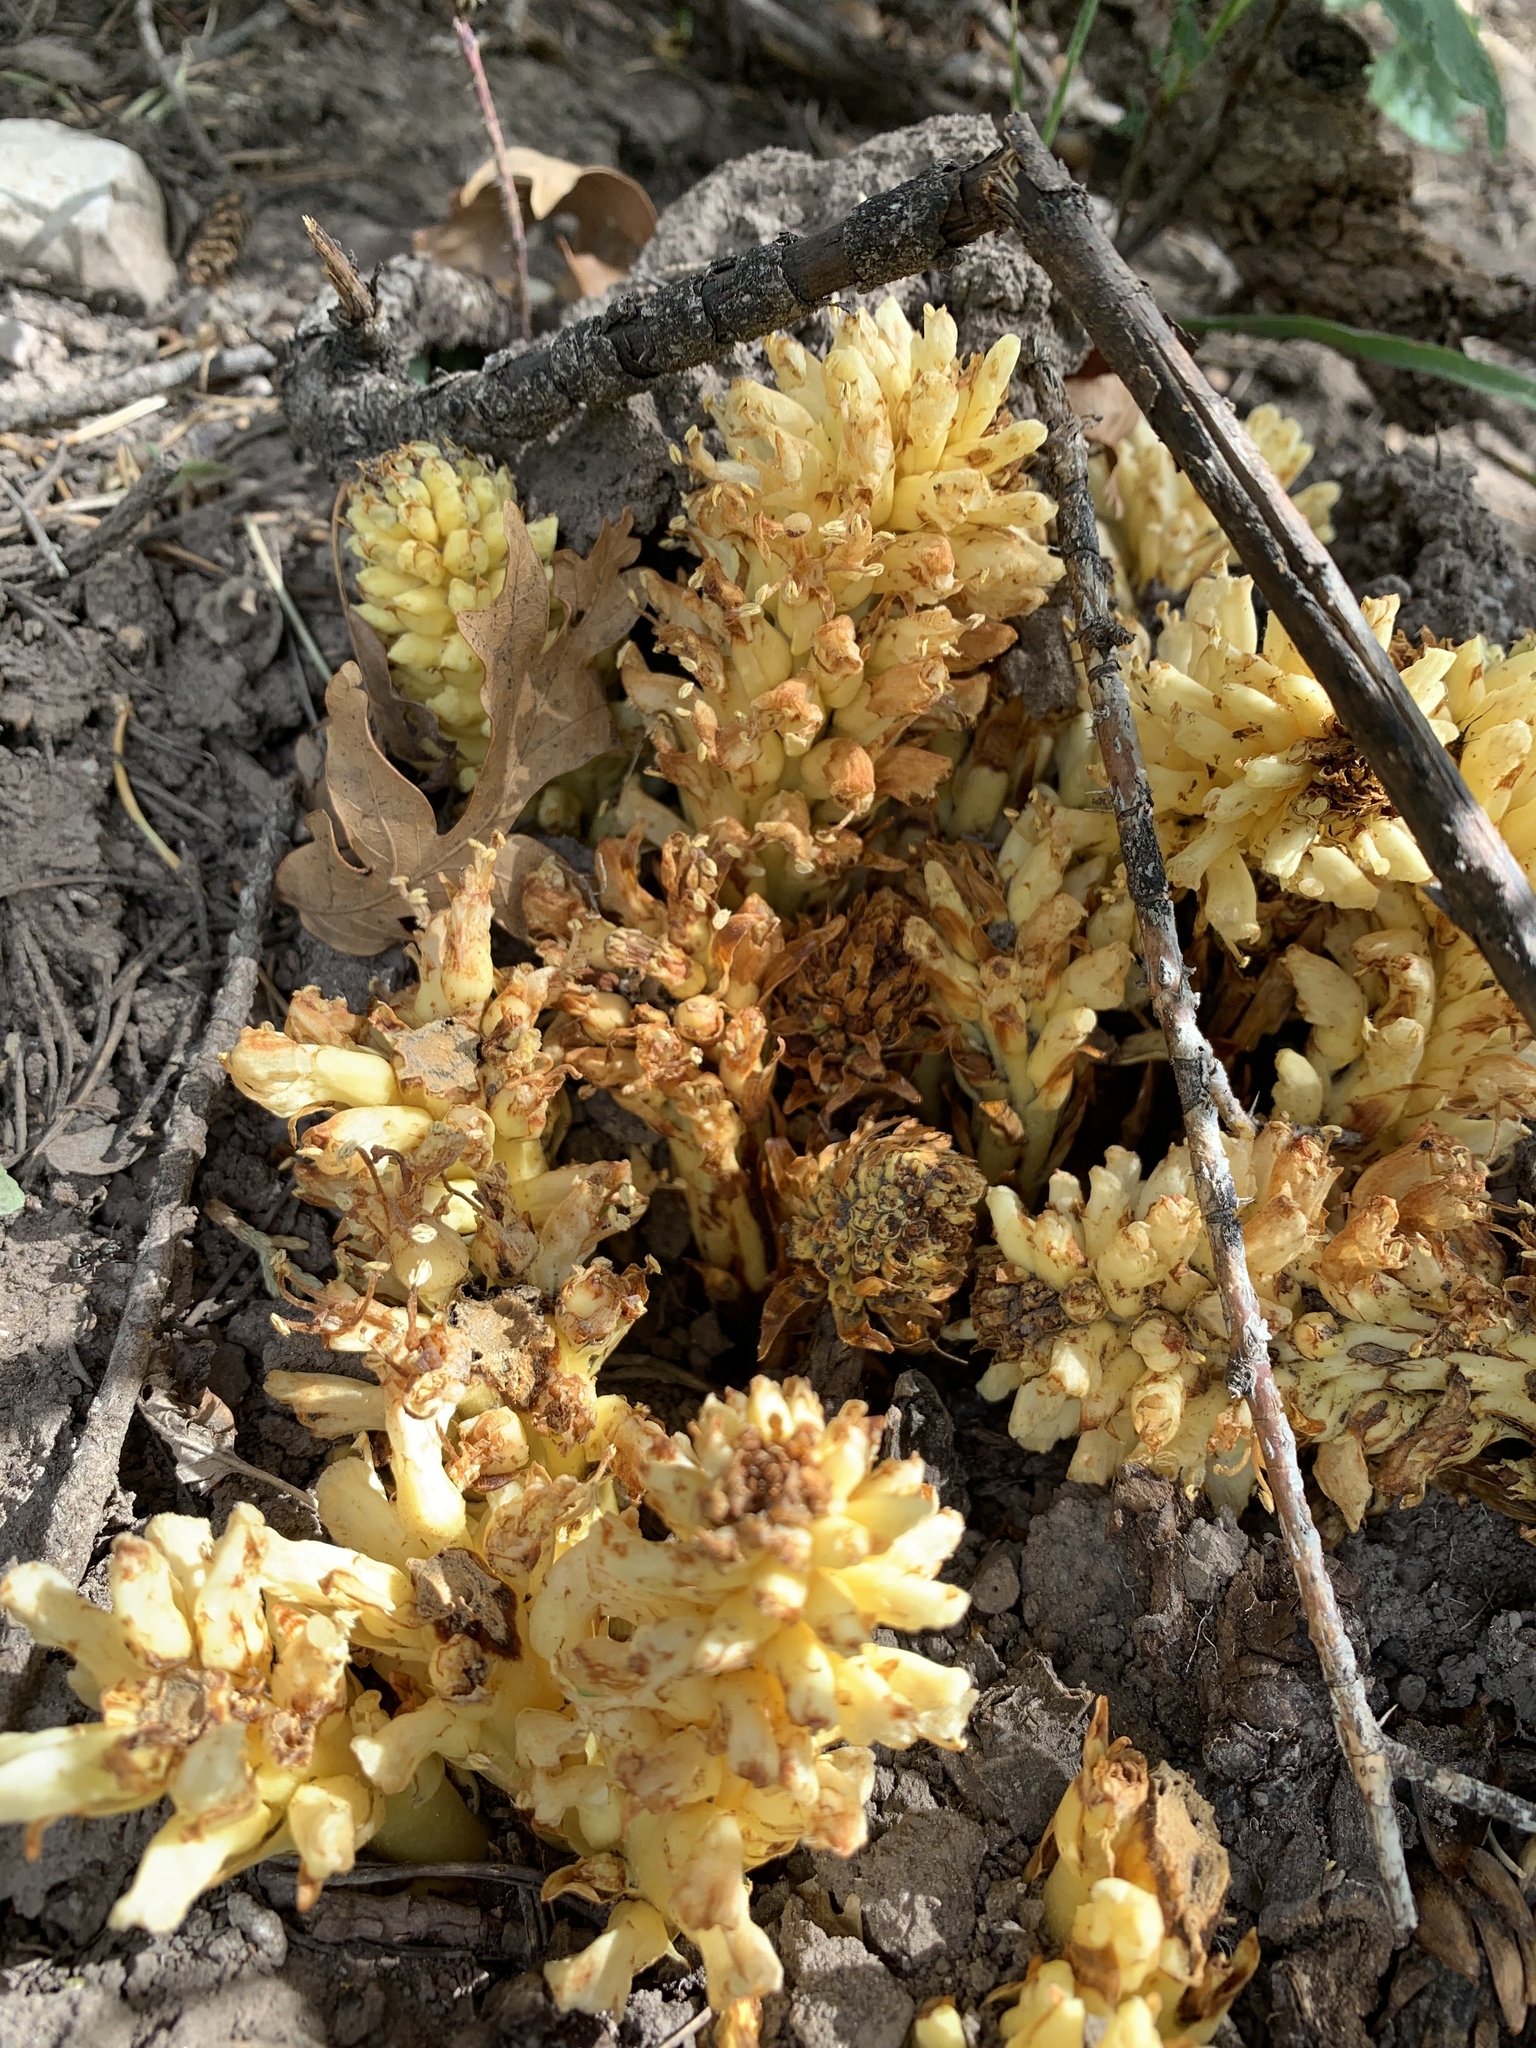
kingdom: Plantae
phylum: Tracheophyta
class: Magnoliopsida
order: Lamiales
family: Orobanchaceae
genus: Conopholis
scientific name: Conopholis alpina
